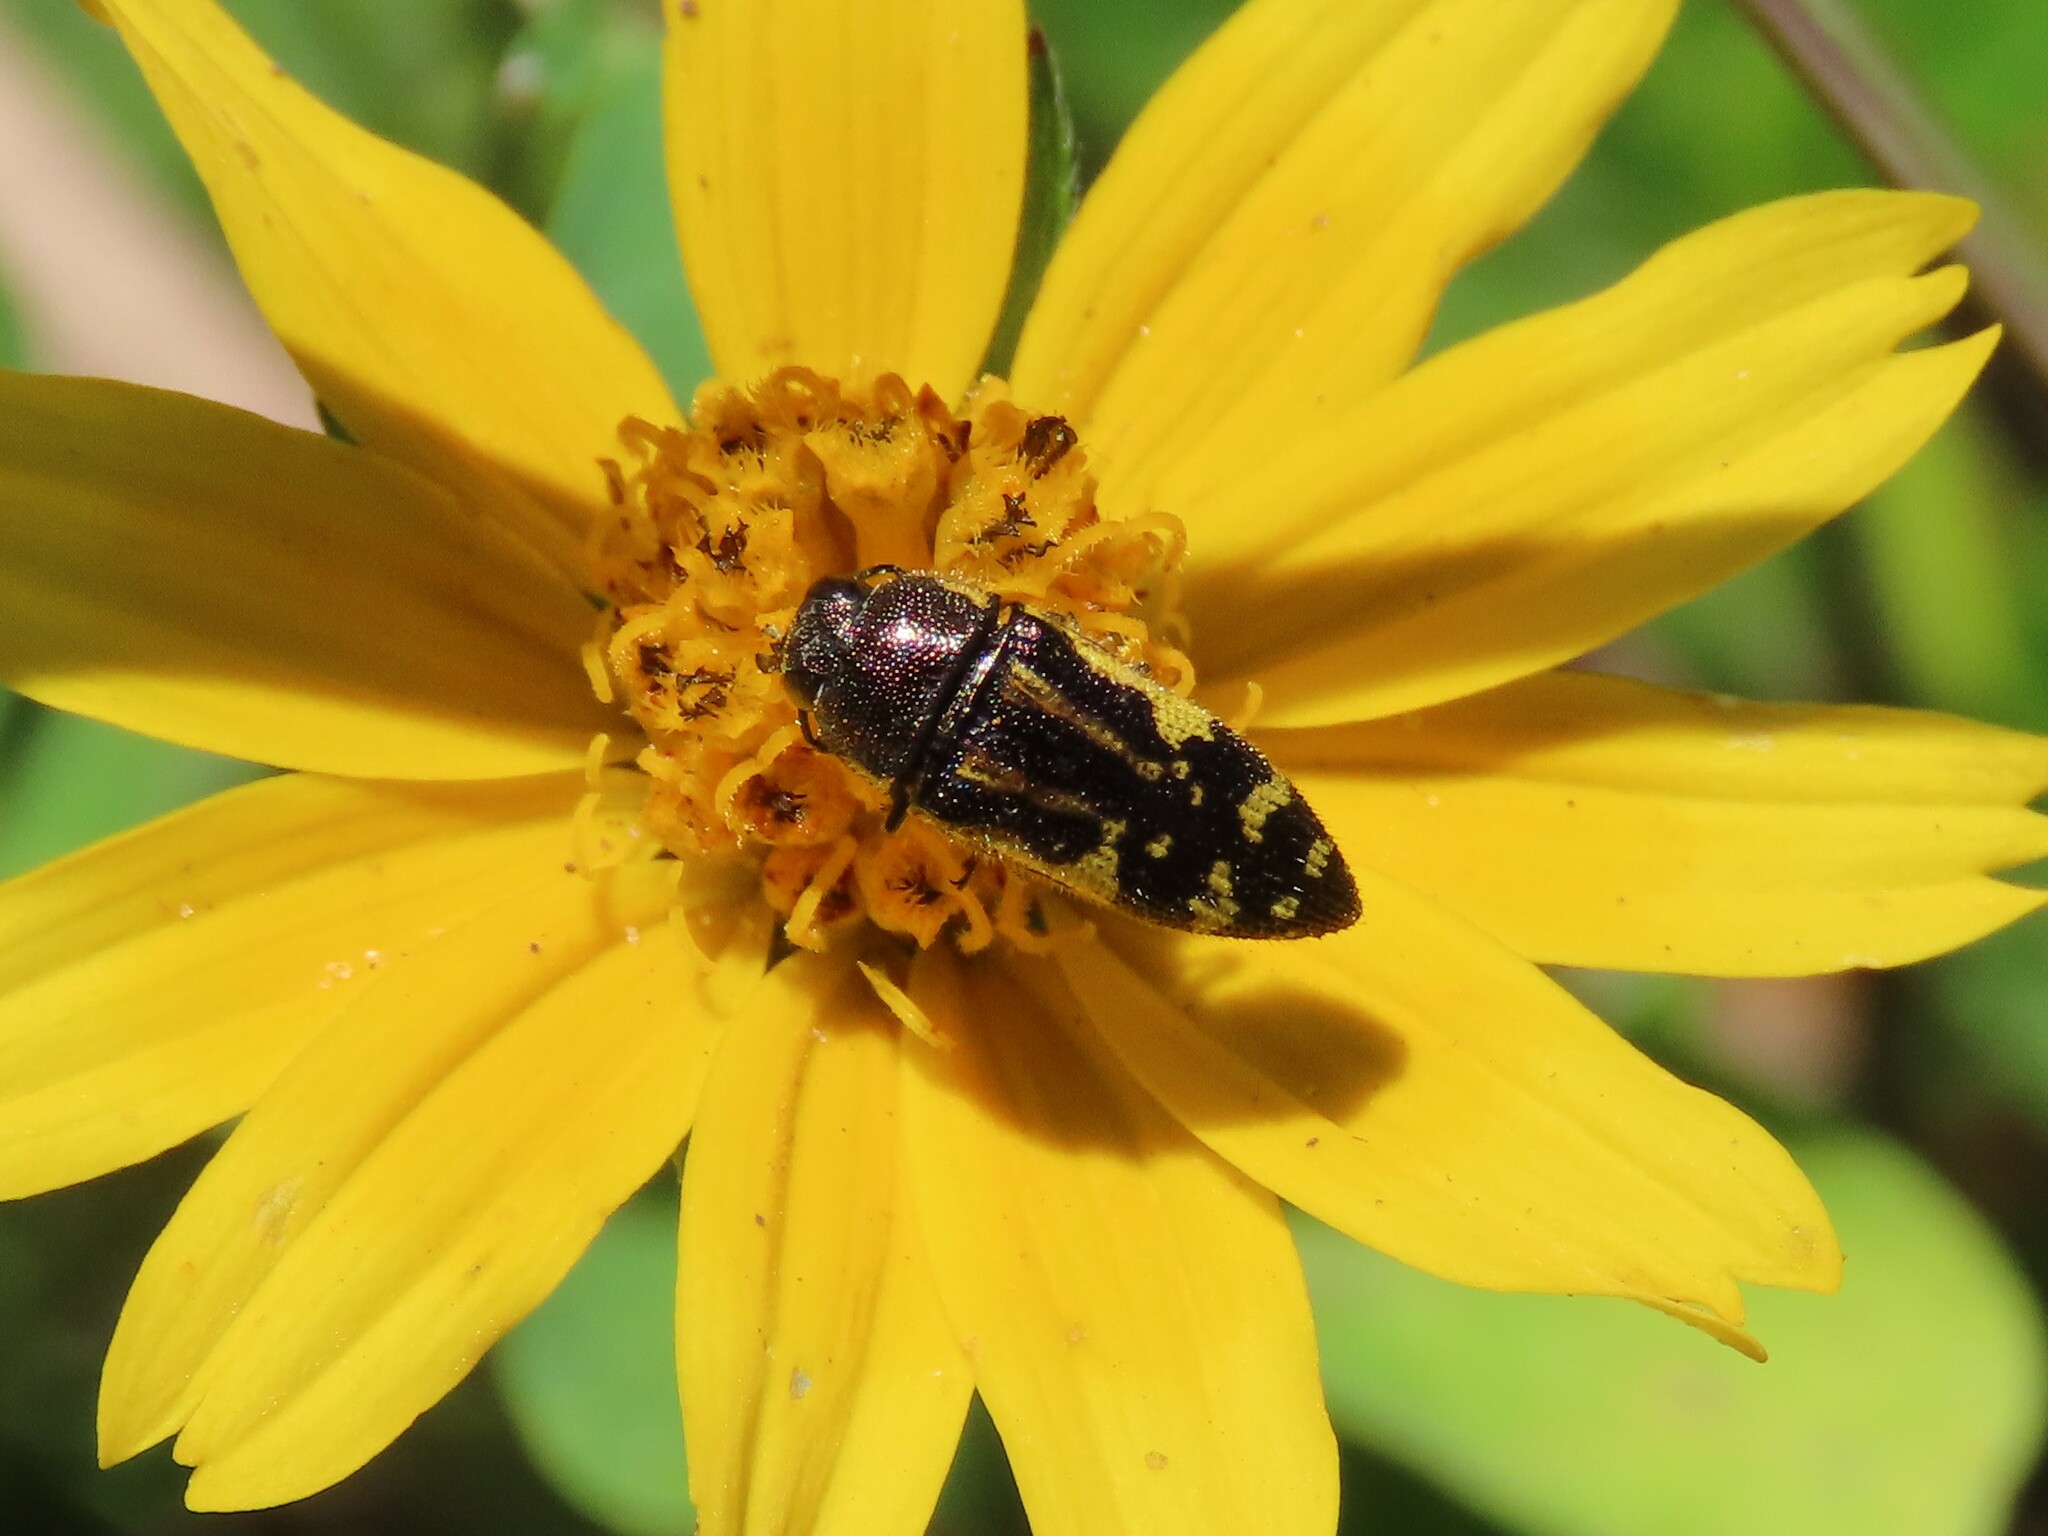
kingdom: Animalia
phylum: Arthropoda
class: Insecta
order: Coleoptera
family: Buprestidae
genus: Acmaeodera
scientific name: Acmaeodera pulchella
